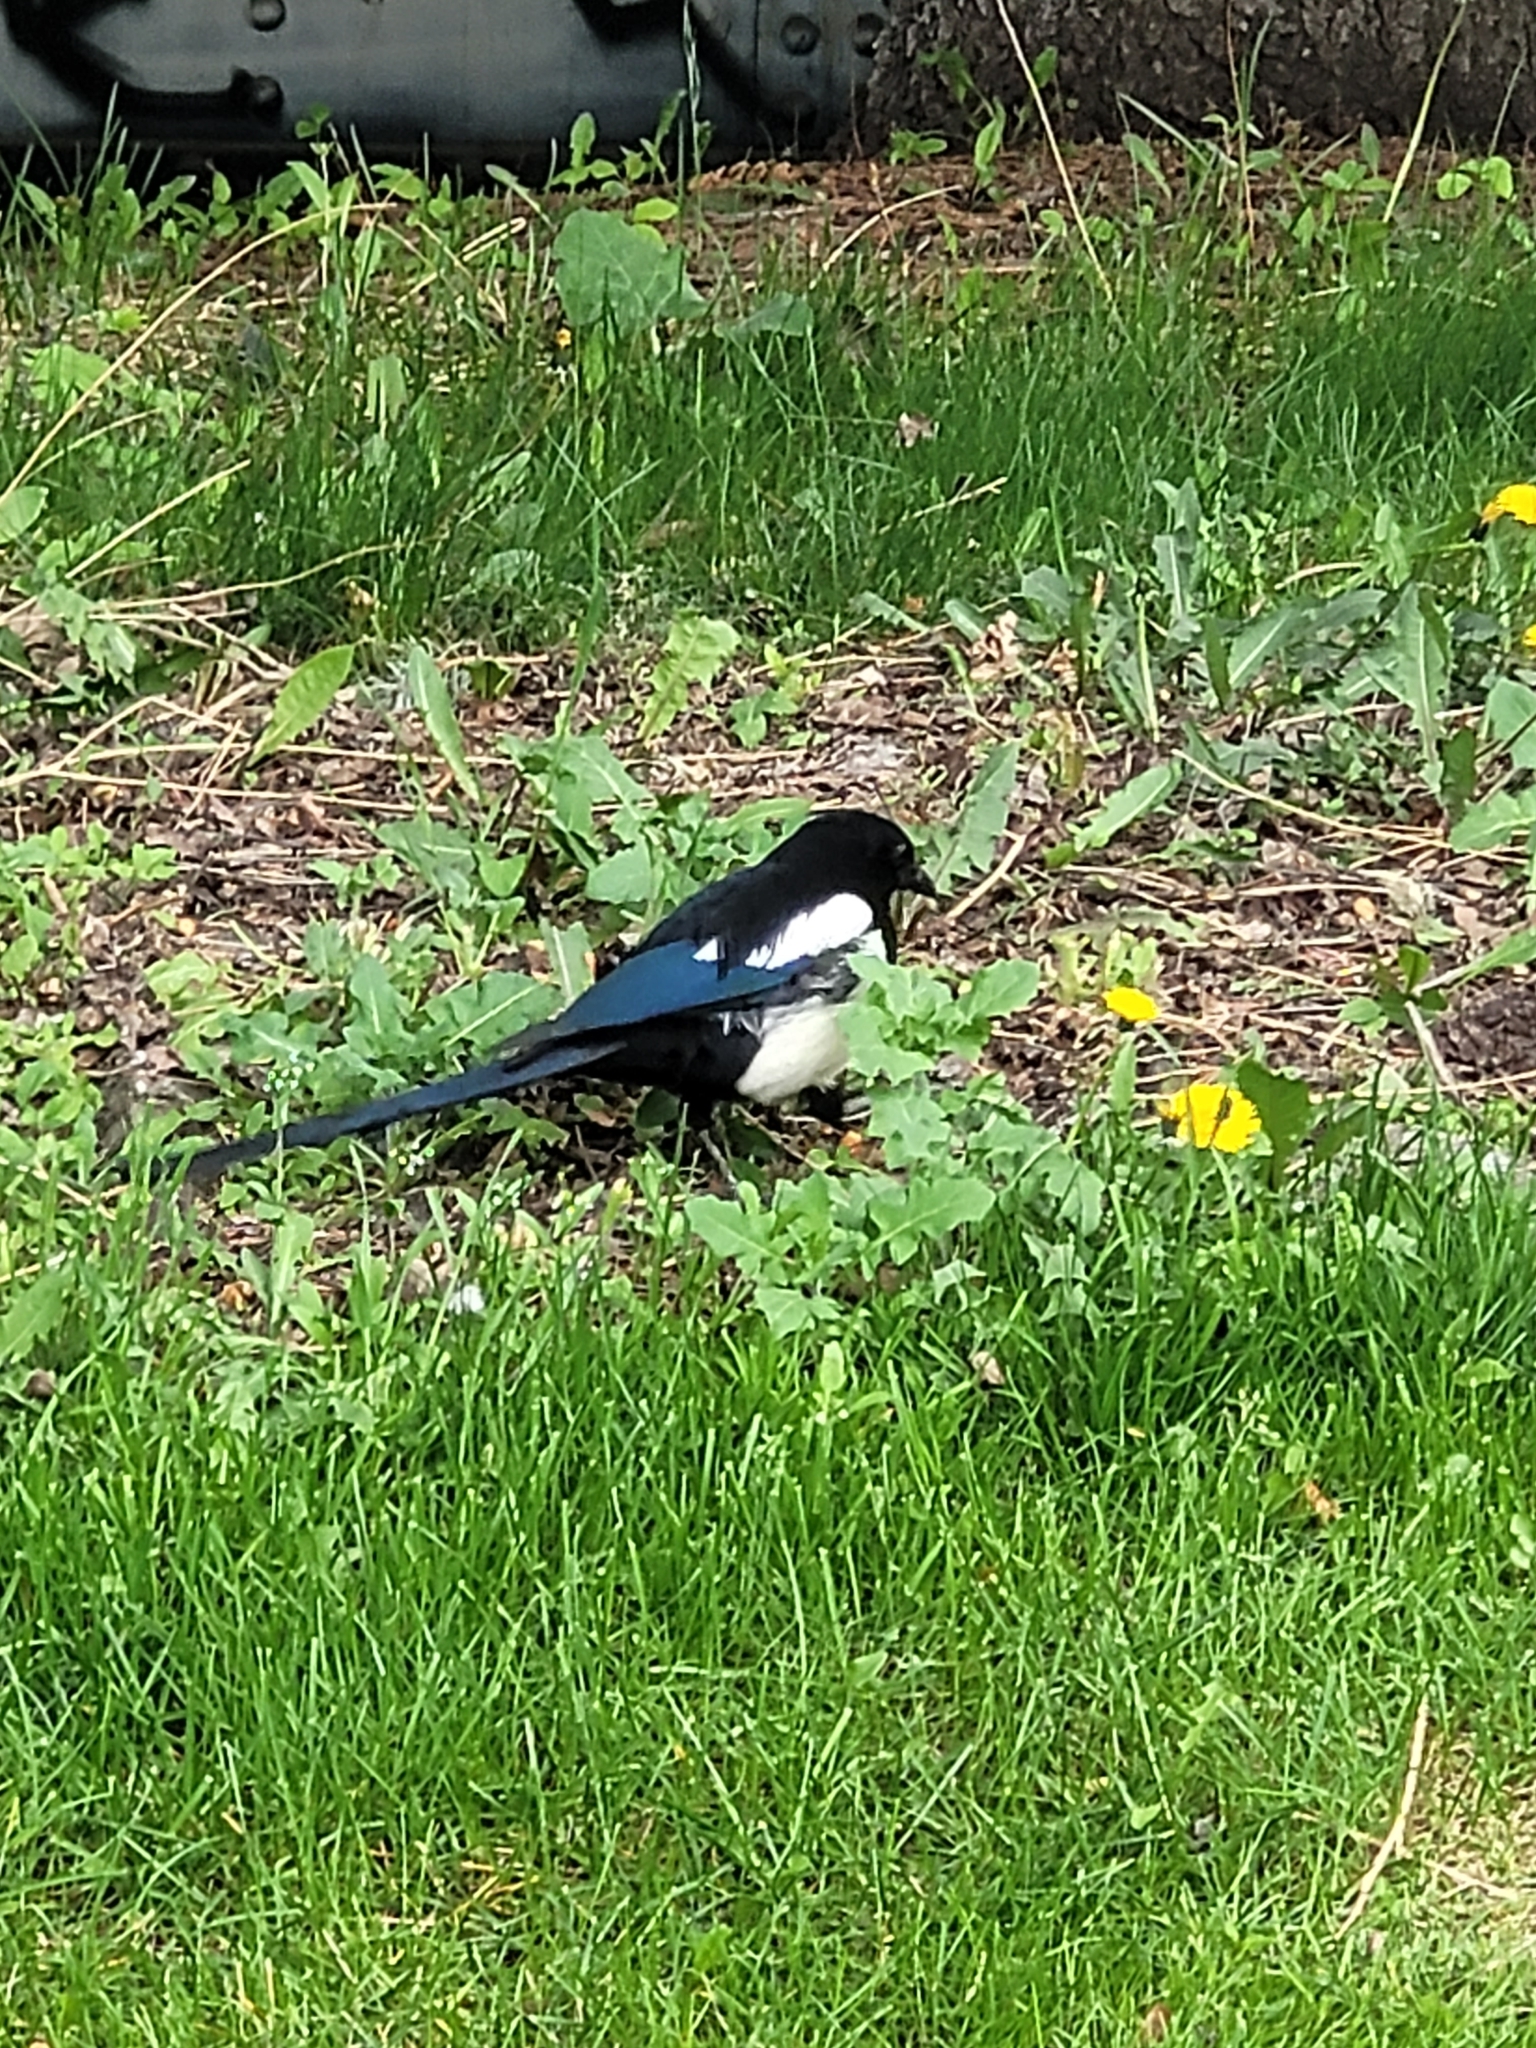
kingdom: Animalia
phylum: Chordata
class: Aves
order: Passeriformes
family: Corvidae
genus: Pica
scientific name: Pica hudsonia
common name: Black-billed magpie
